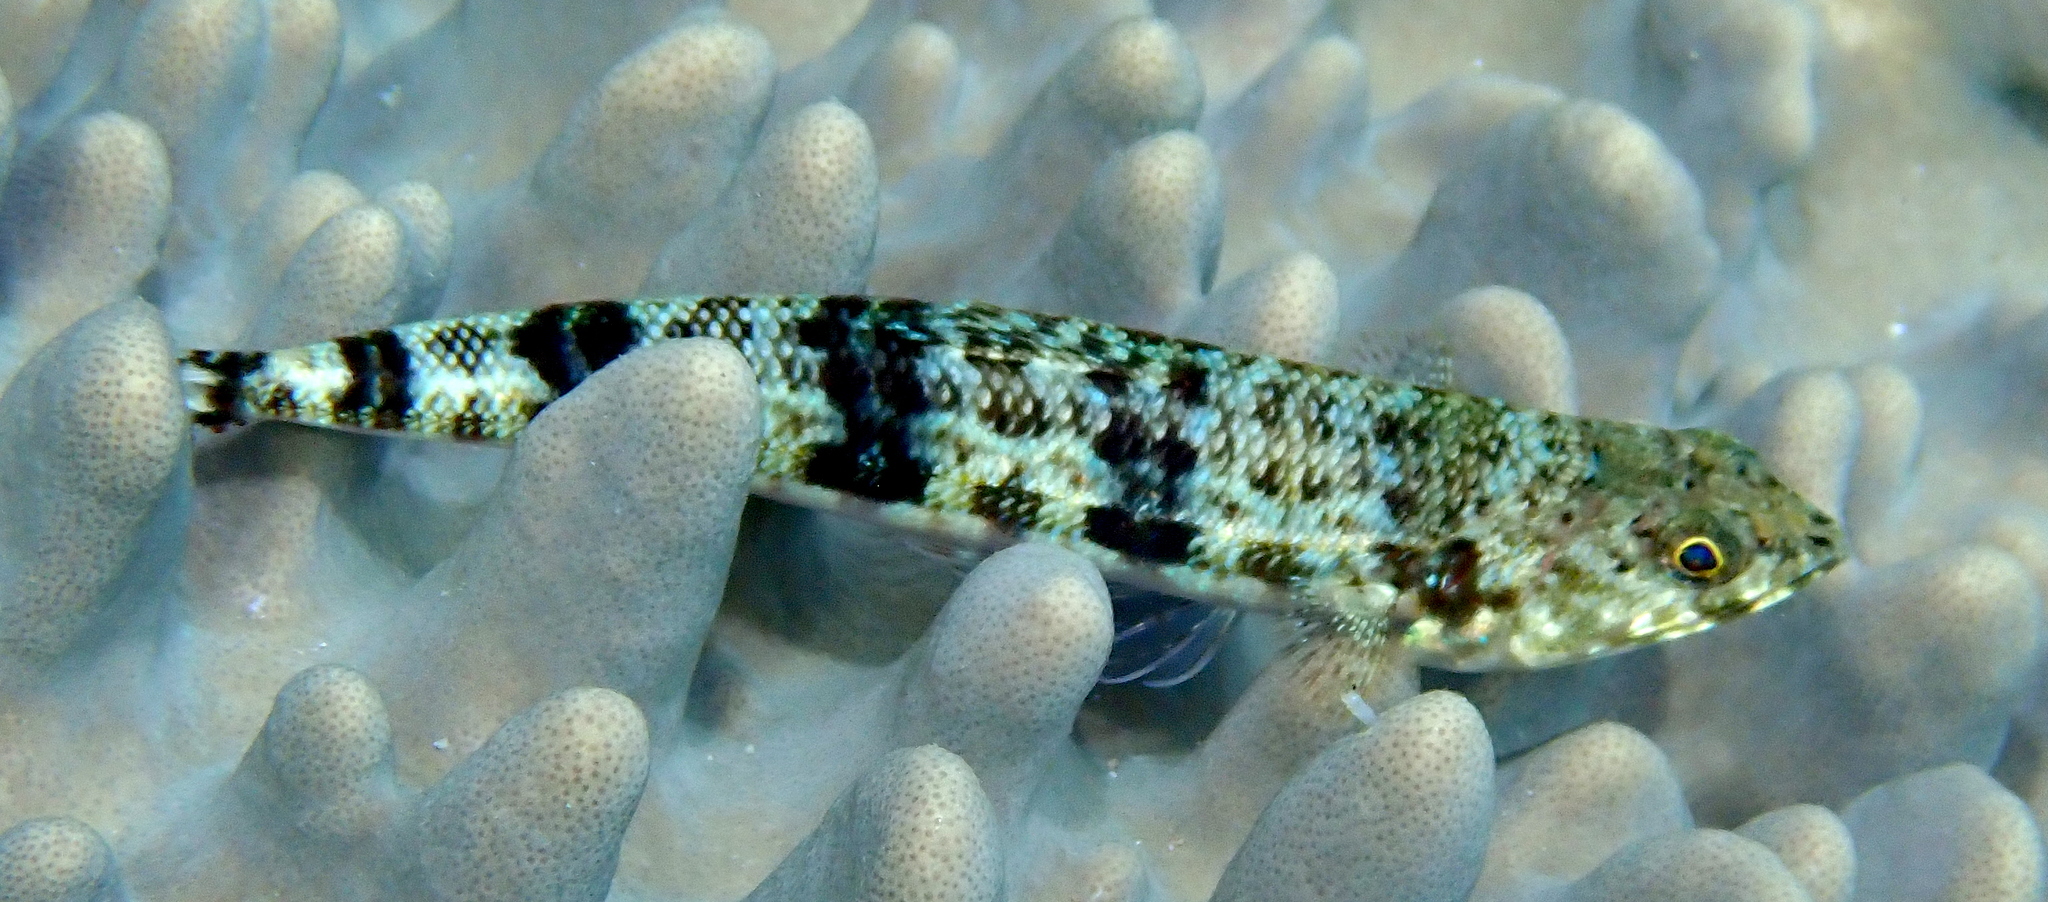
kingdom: Animalia
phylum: Chordata
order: Aulopiformes
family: Synodontidae
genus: Synodus
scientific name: Synodus variegatus
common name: Variegated lizardfish
